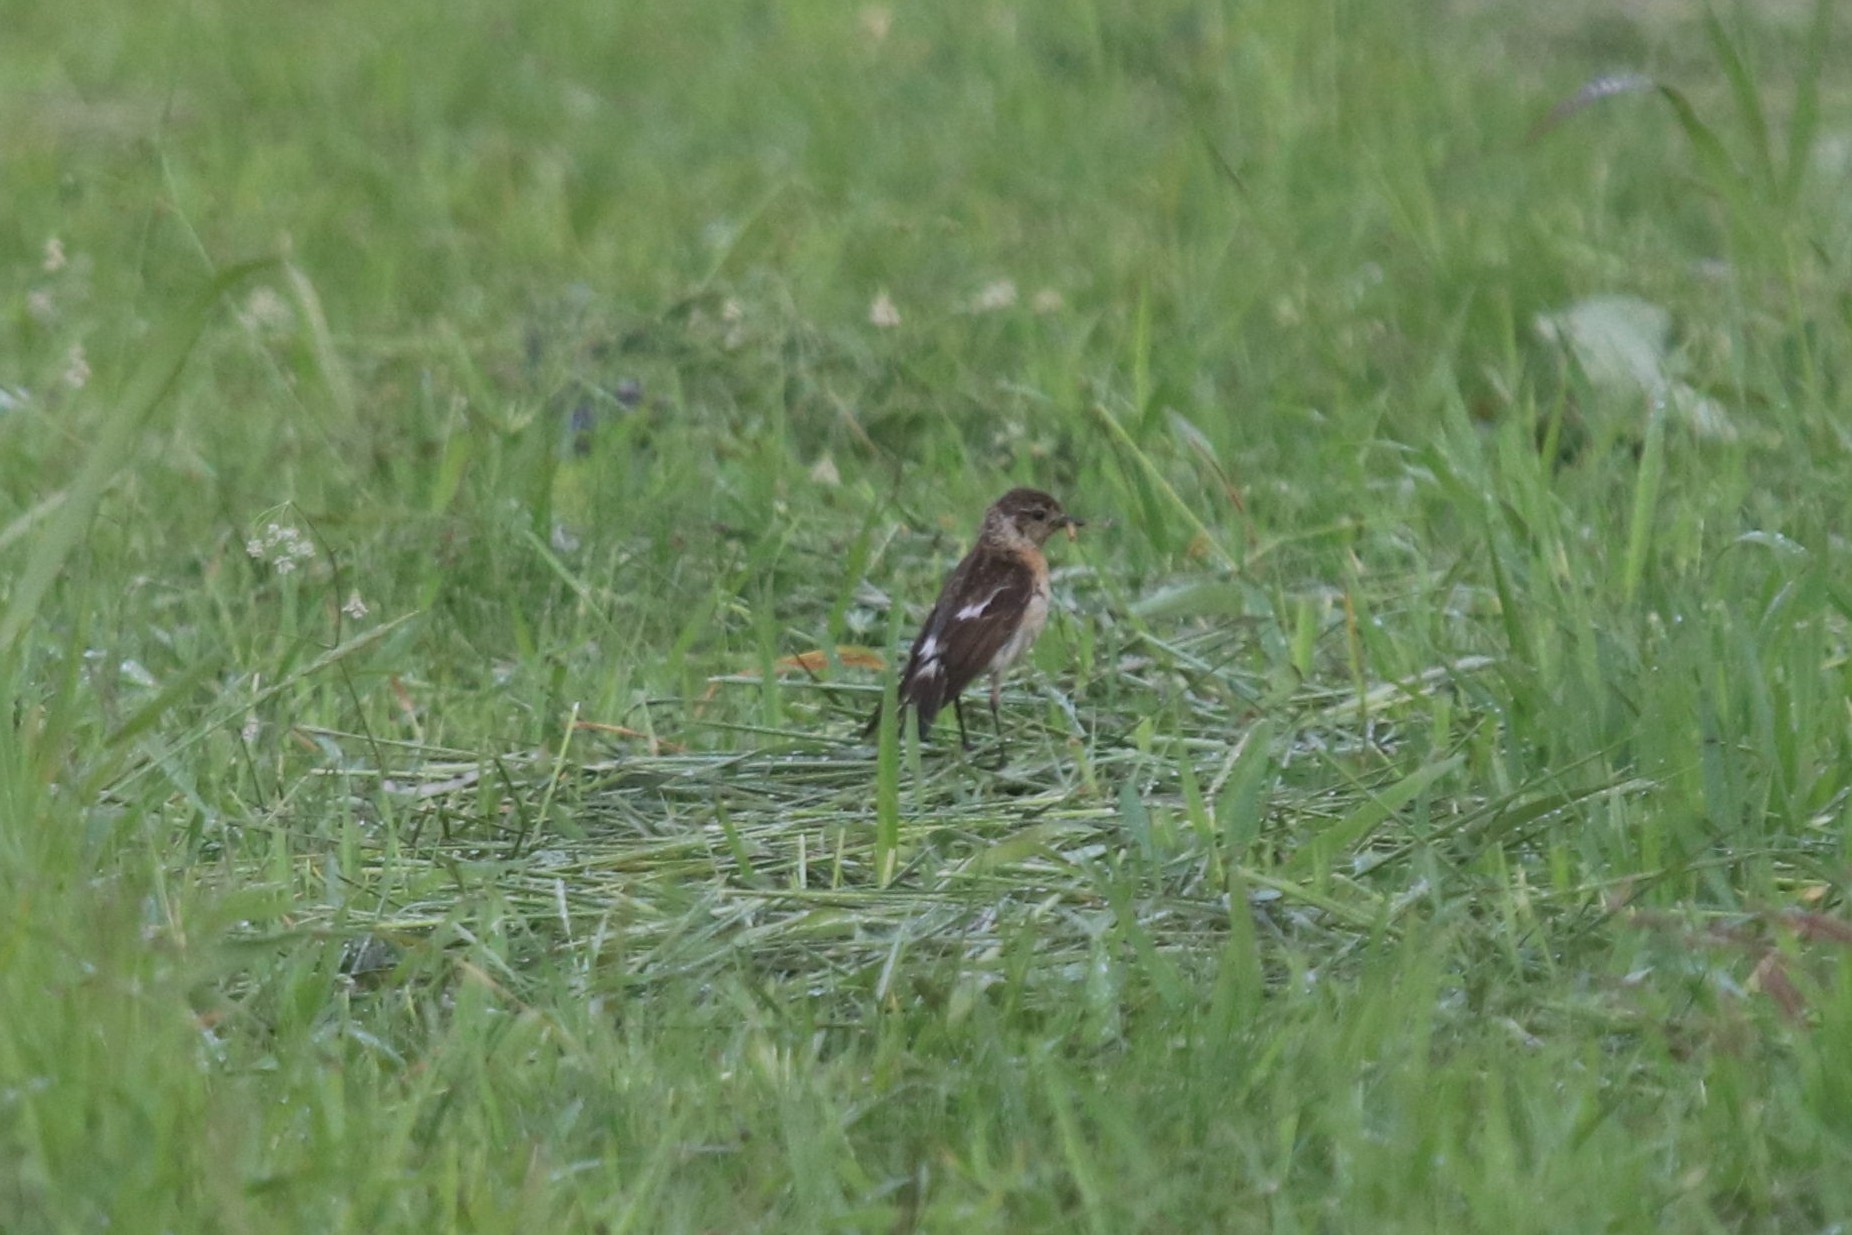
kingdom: Animalia
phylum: Chordata
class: Aves
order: Passeriformes
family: Muscicapidae
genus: Saxicola
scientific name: Saxicola maurus
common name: Siberian stonechat
